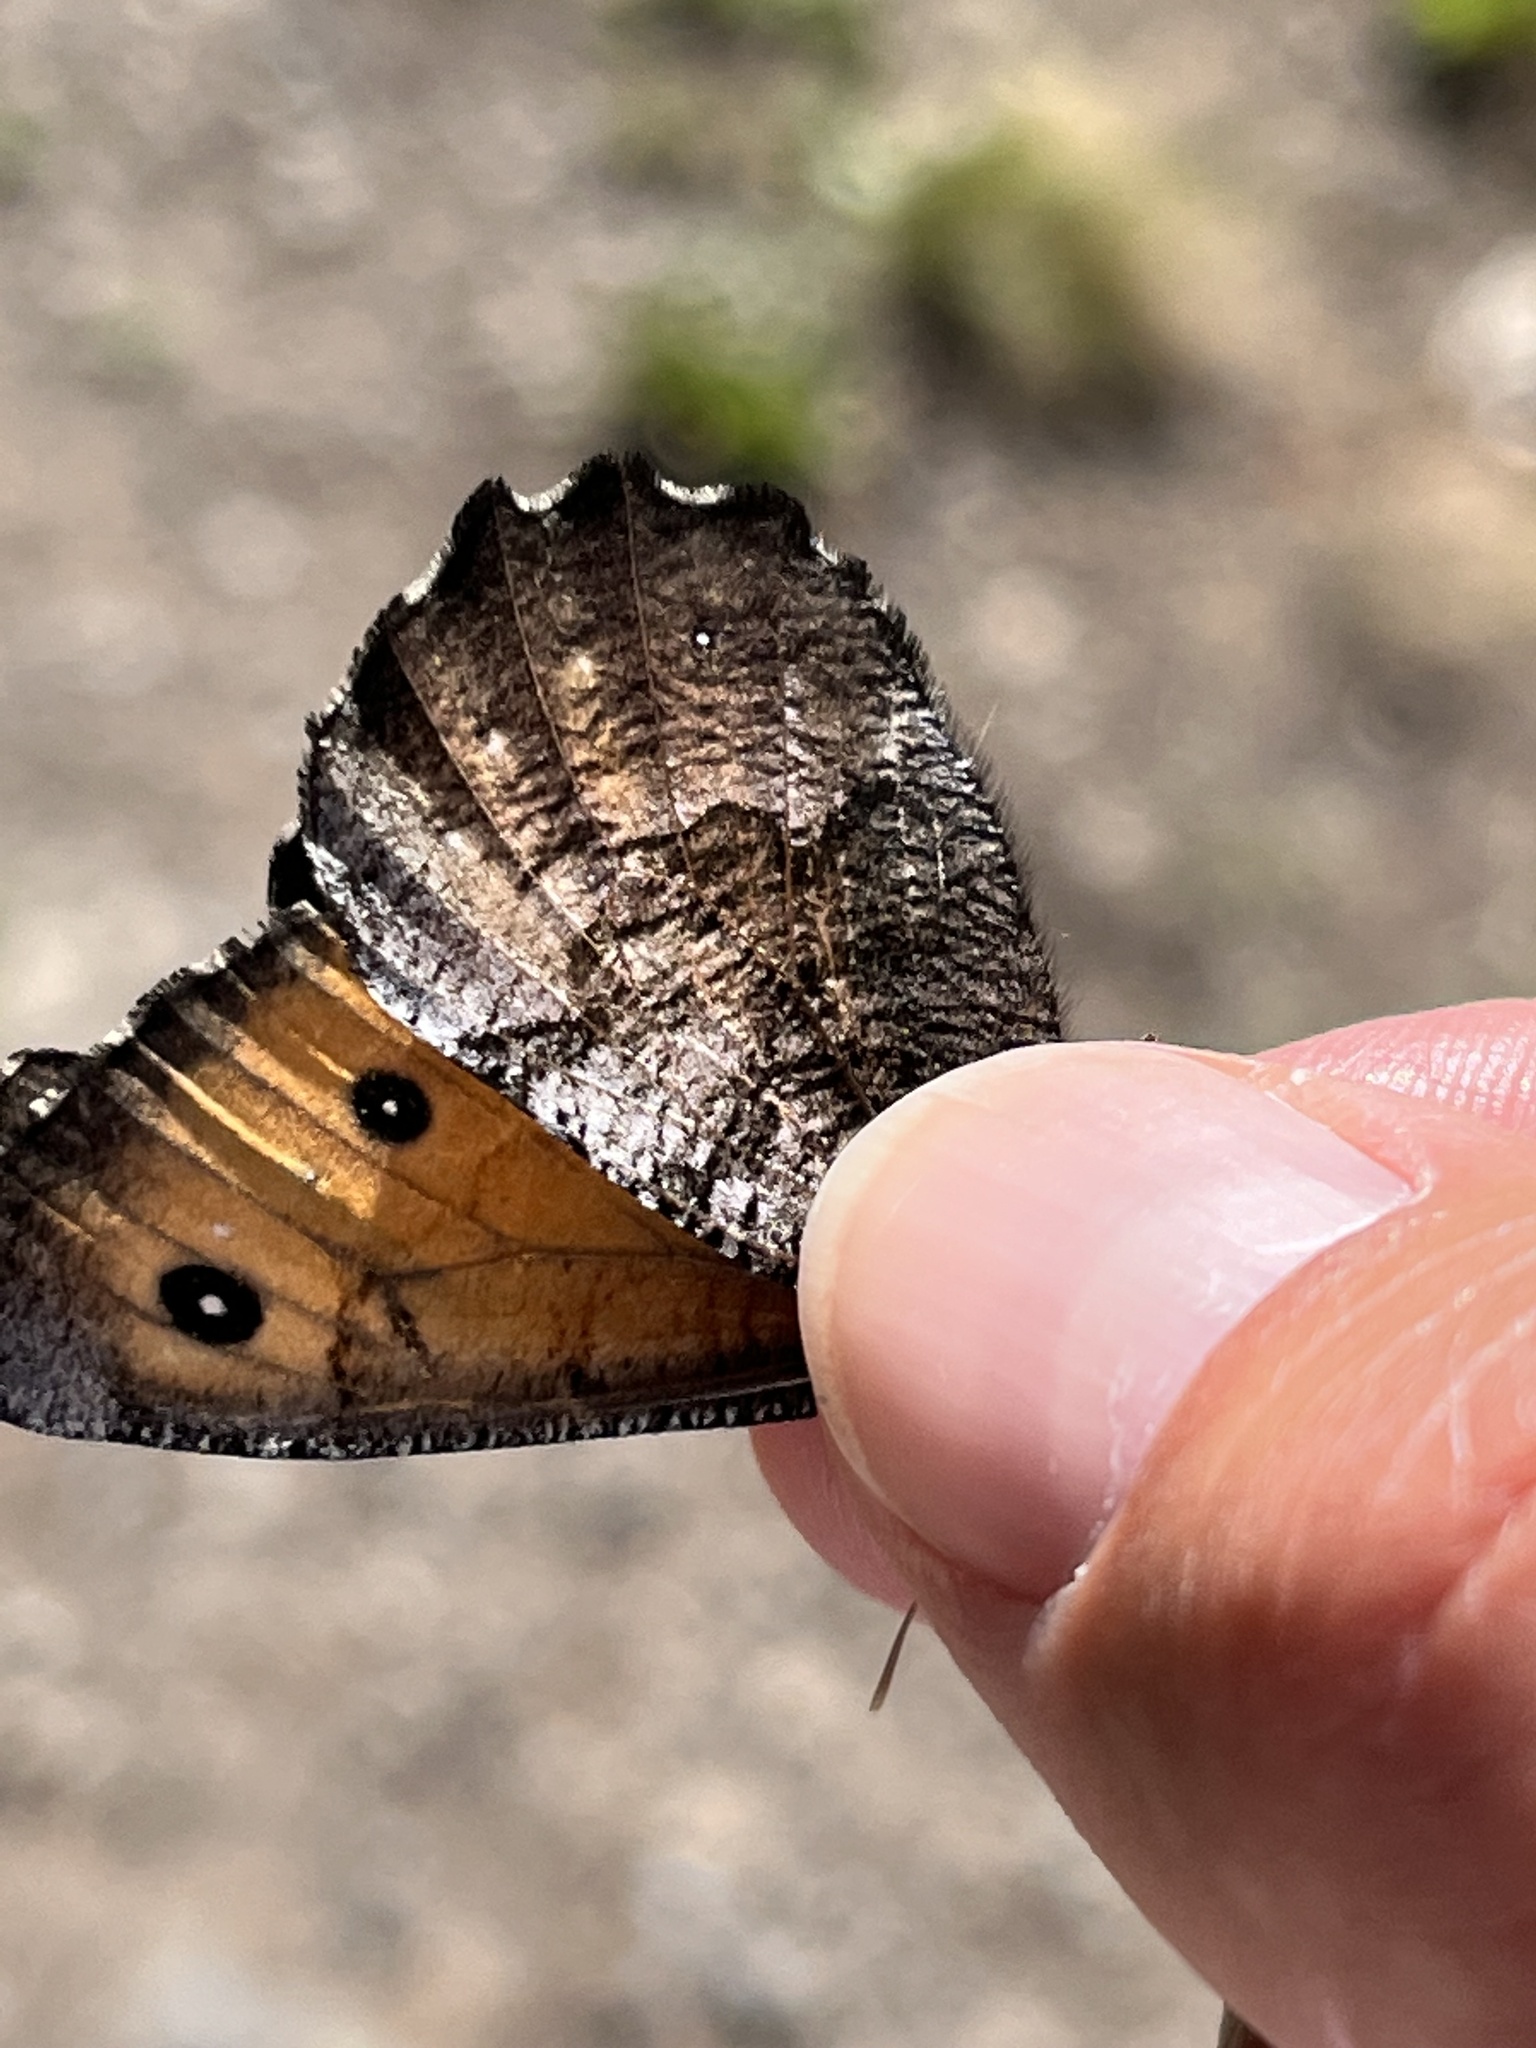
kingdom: Animalia
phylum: Arthropoda
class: Insecta
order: Lepidoptera
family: Nymphalidae
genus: Oeneis
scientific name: Oeneis macounii
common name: Macoun's arctic
